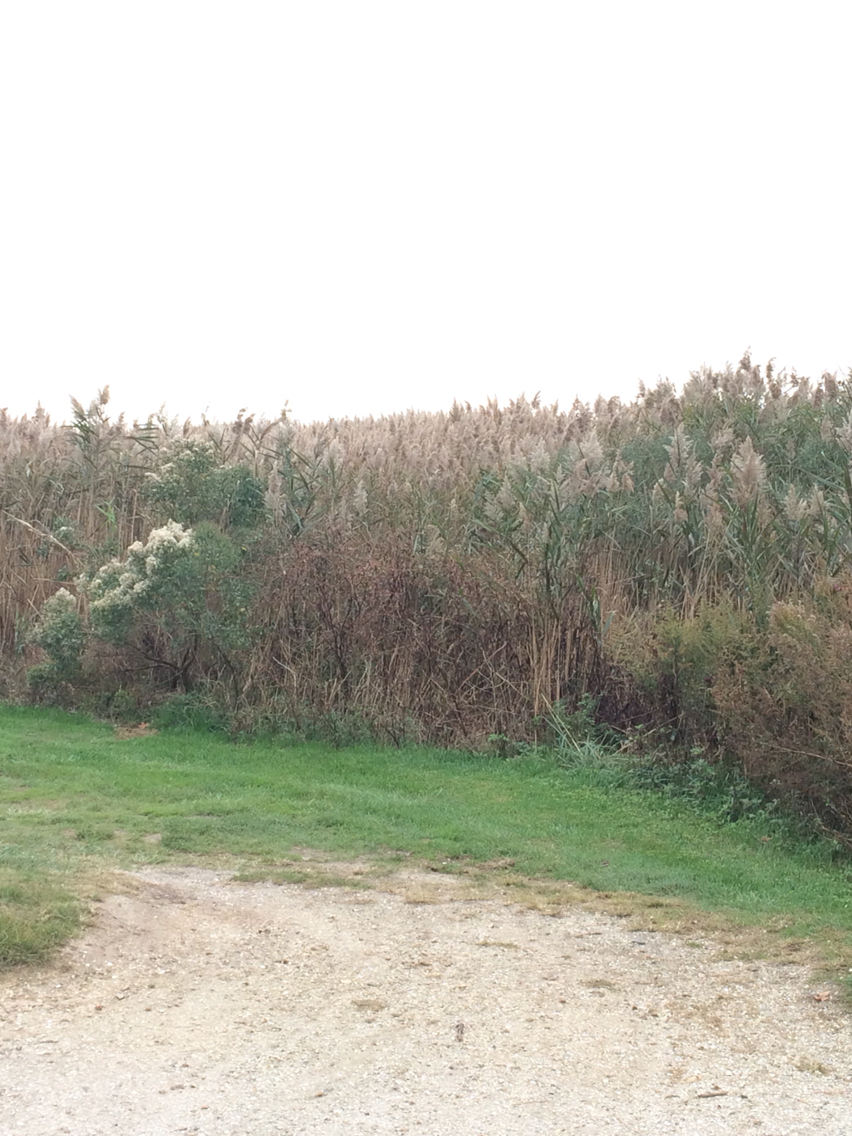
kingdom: Plantae
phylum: Tracheophyta
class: Liliopsida
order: Poales
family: Poaceae
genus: Phragmites
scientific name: Phragmites australis
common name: Common reed
